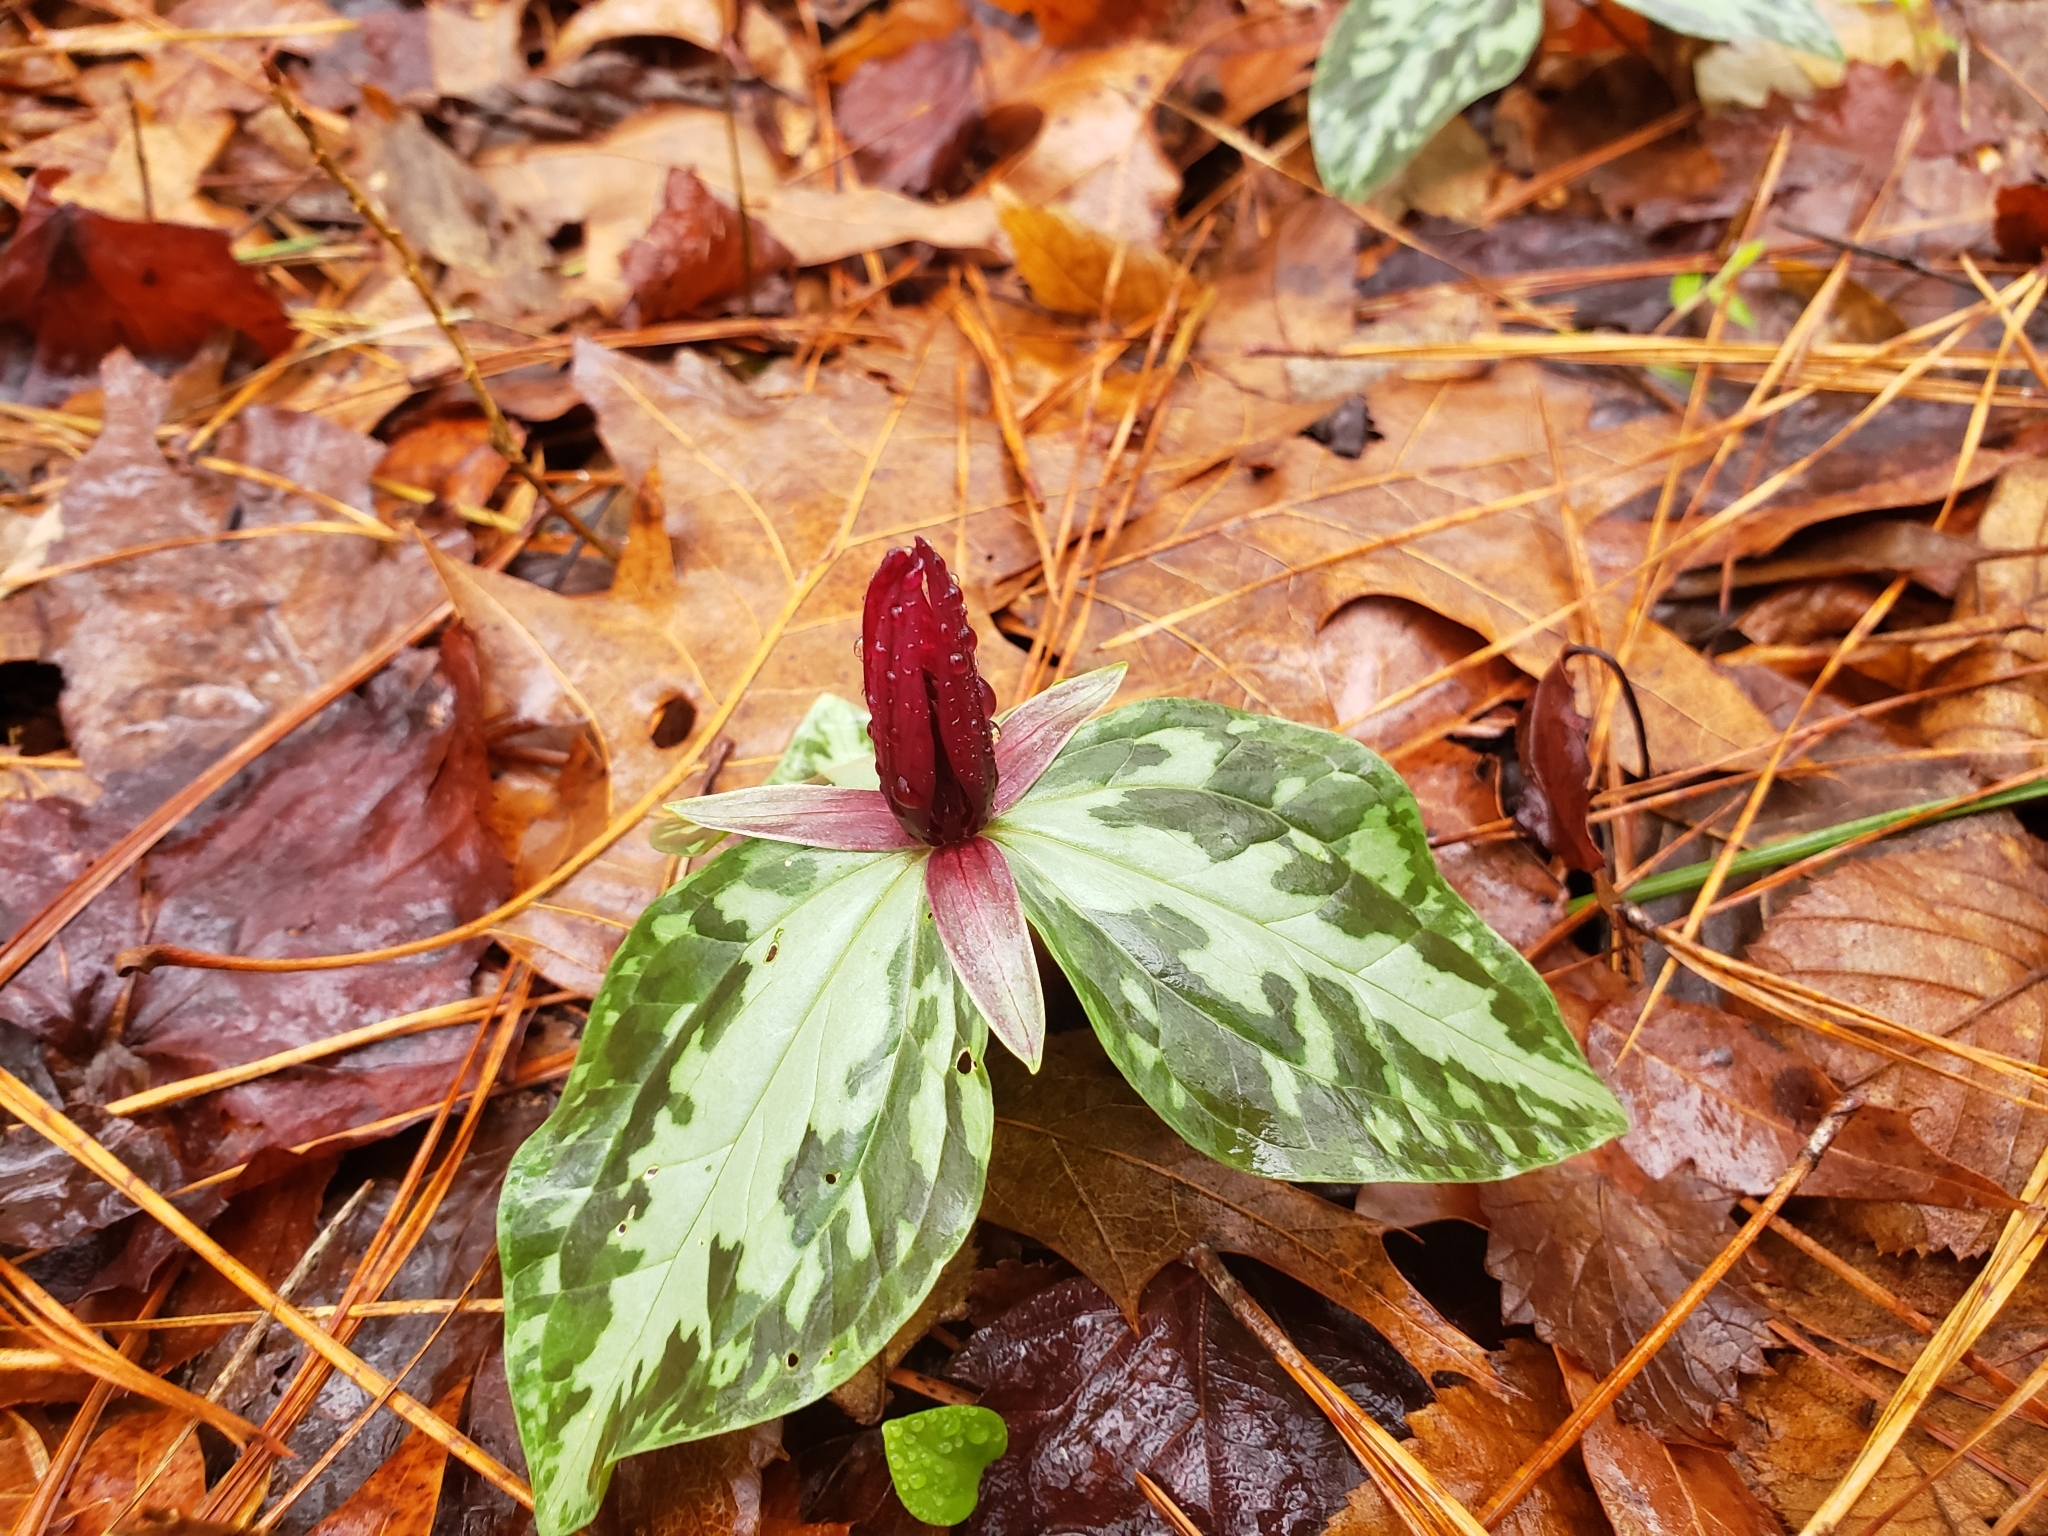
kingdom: Plantae
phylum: Tracheophyta
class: Liliopsida
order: Liliales
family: Melanthiaceae
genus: Trillium
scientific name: Trillium foetidissimum
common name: Mississippi river trillium
